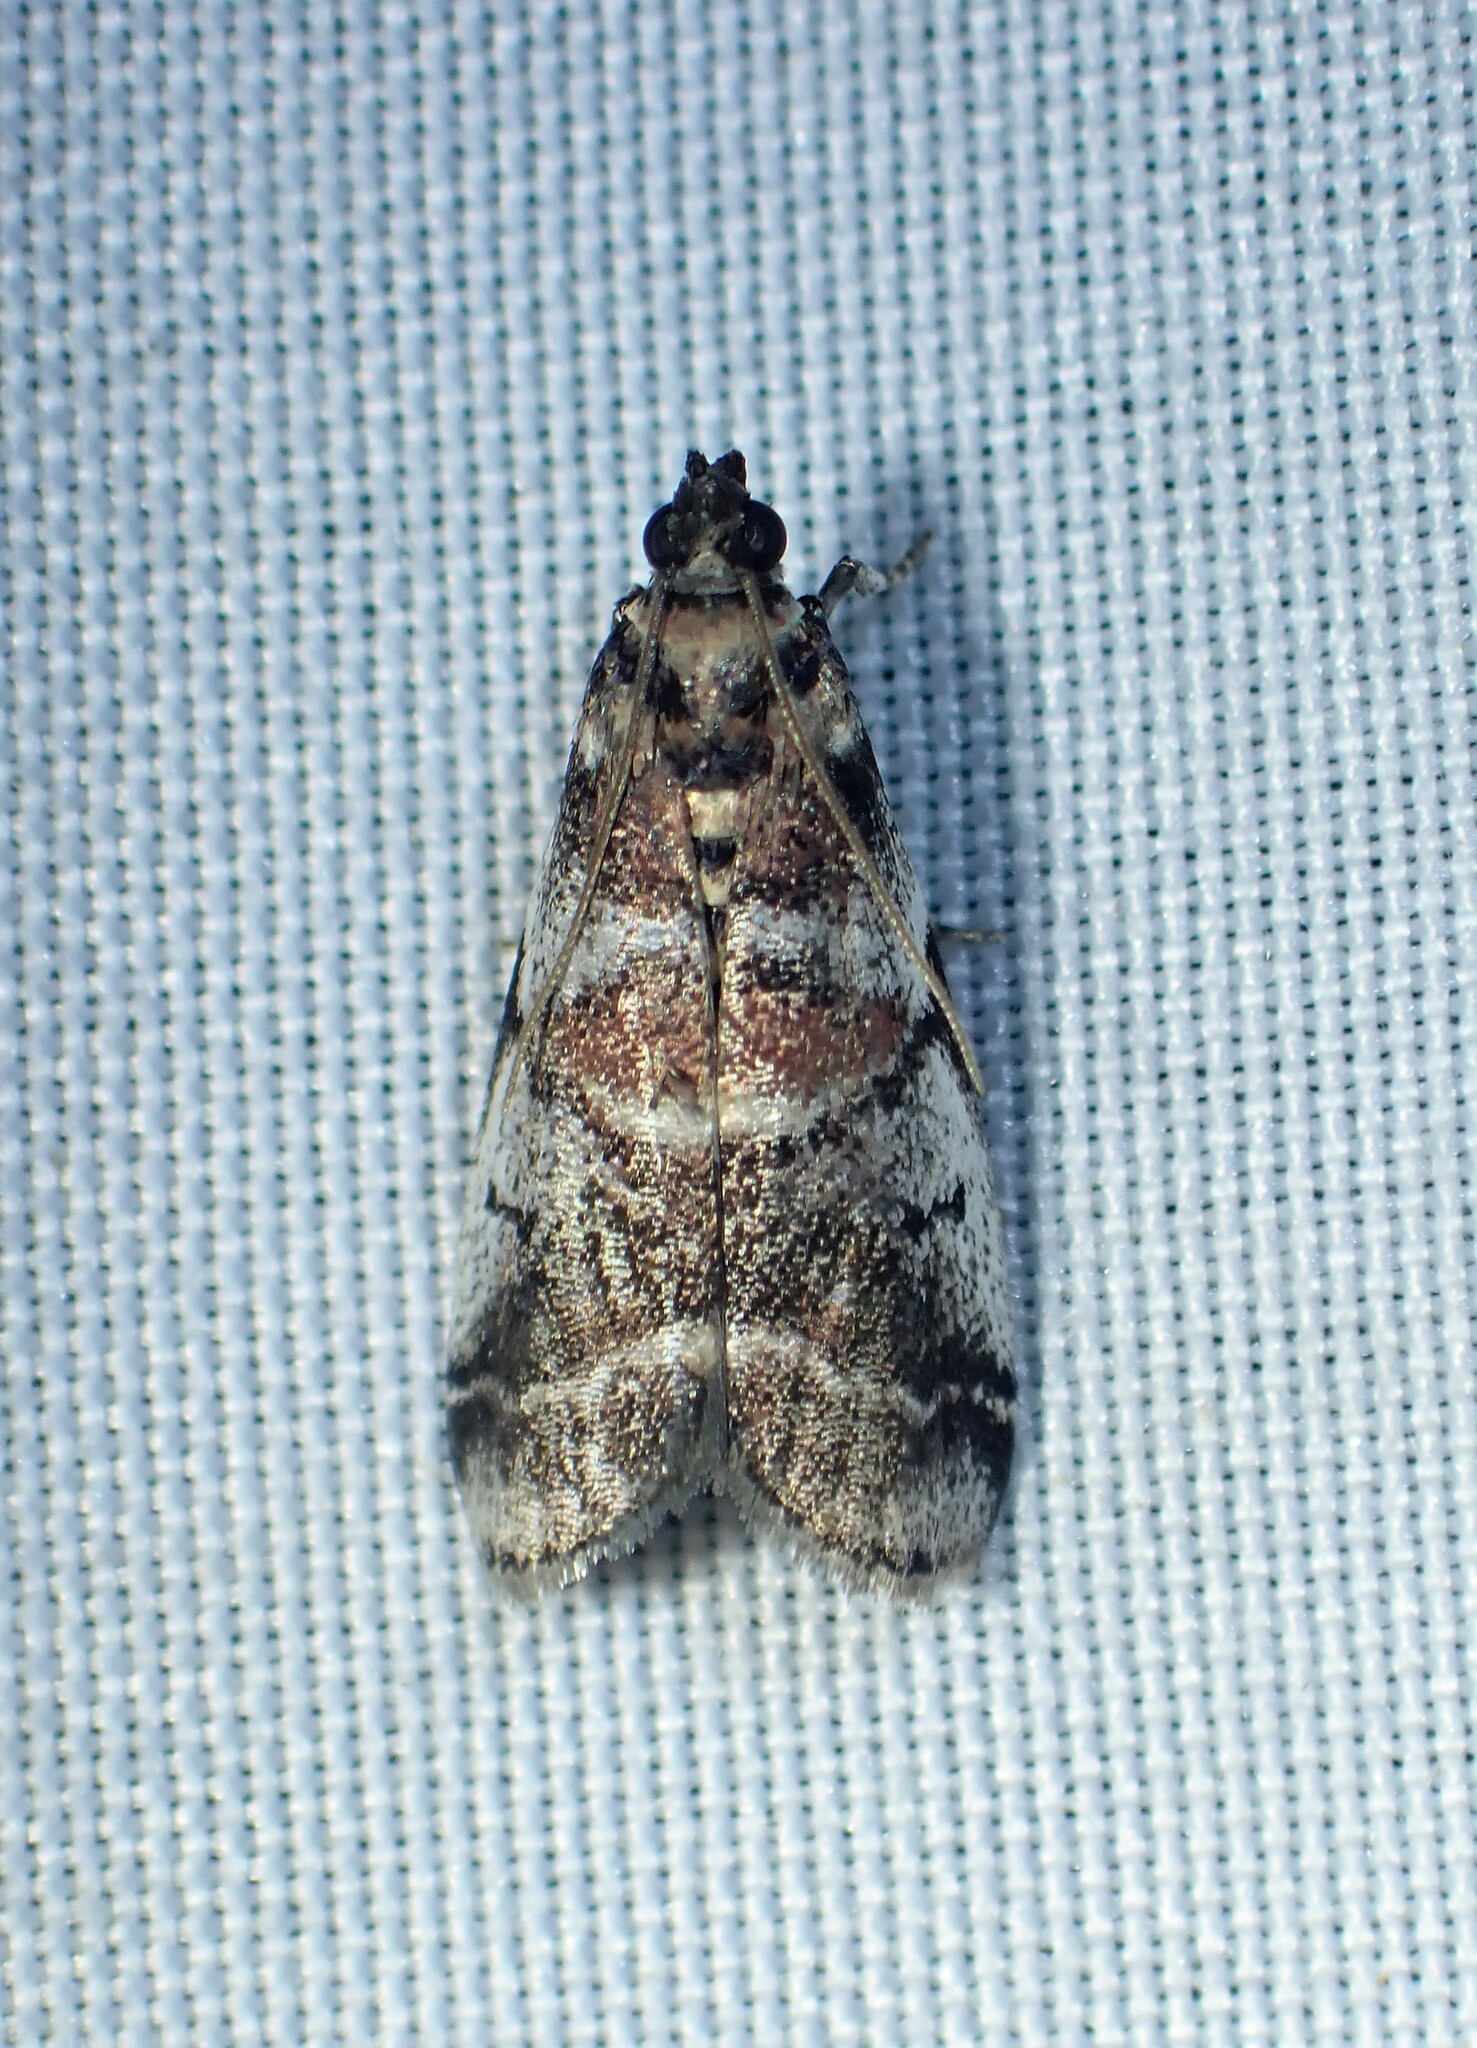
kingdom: Animalia
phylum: Arthropoda
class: Insecta
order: Lepidoptera
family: Pyralidae
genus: Acrobasis
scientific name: Acrobasis indigenella
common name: Leaf crumpler moth
